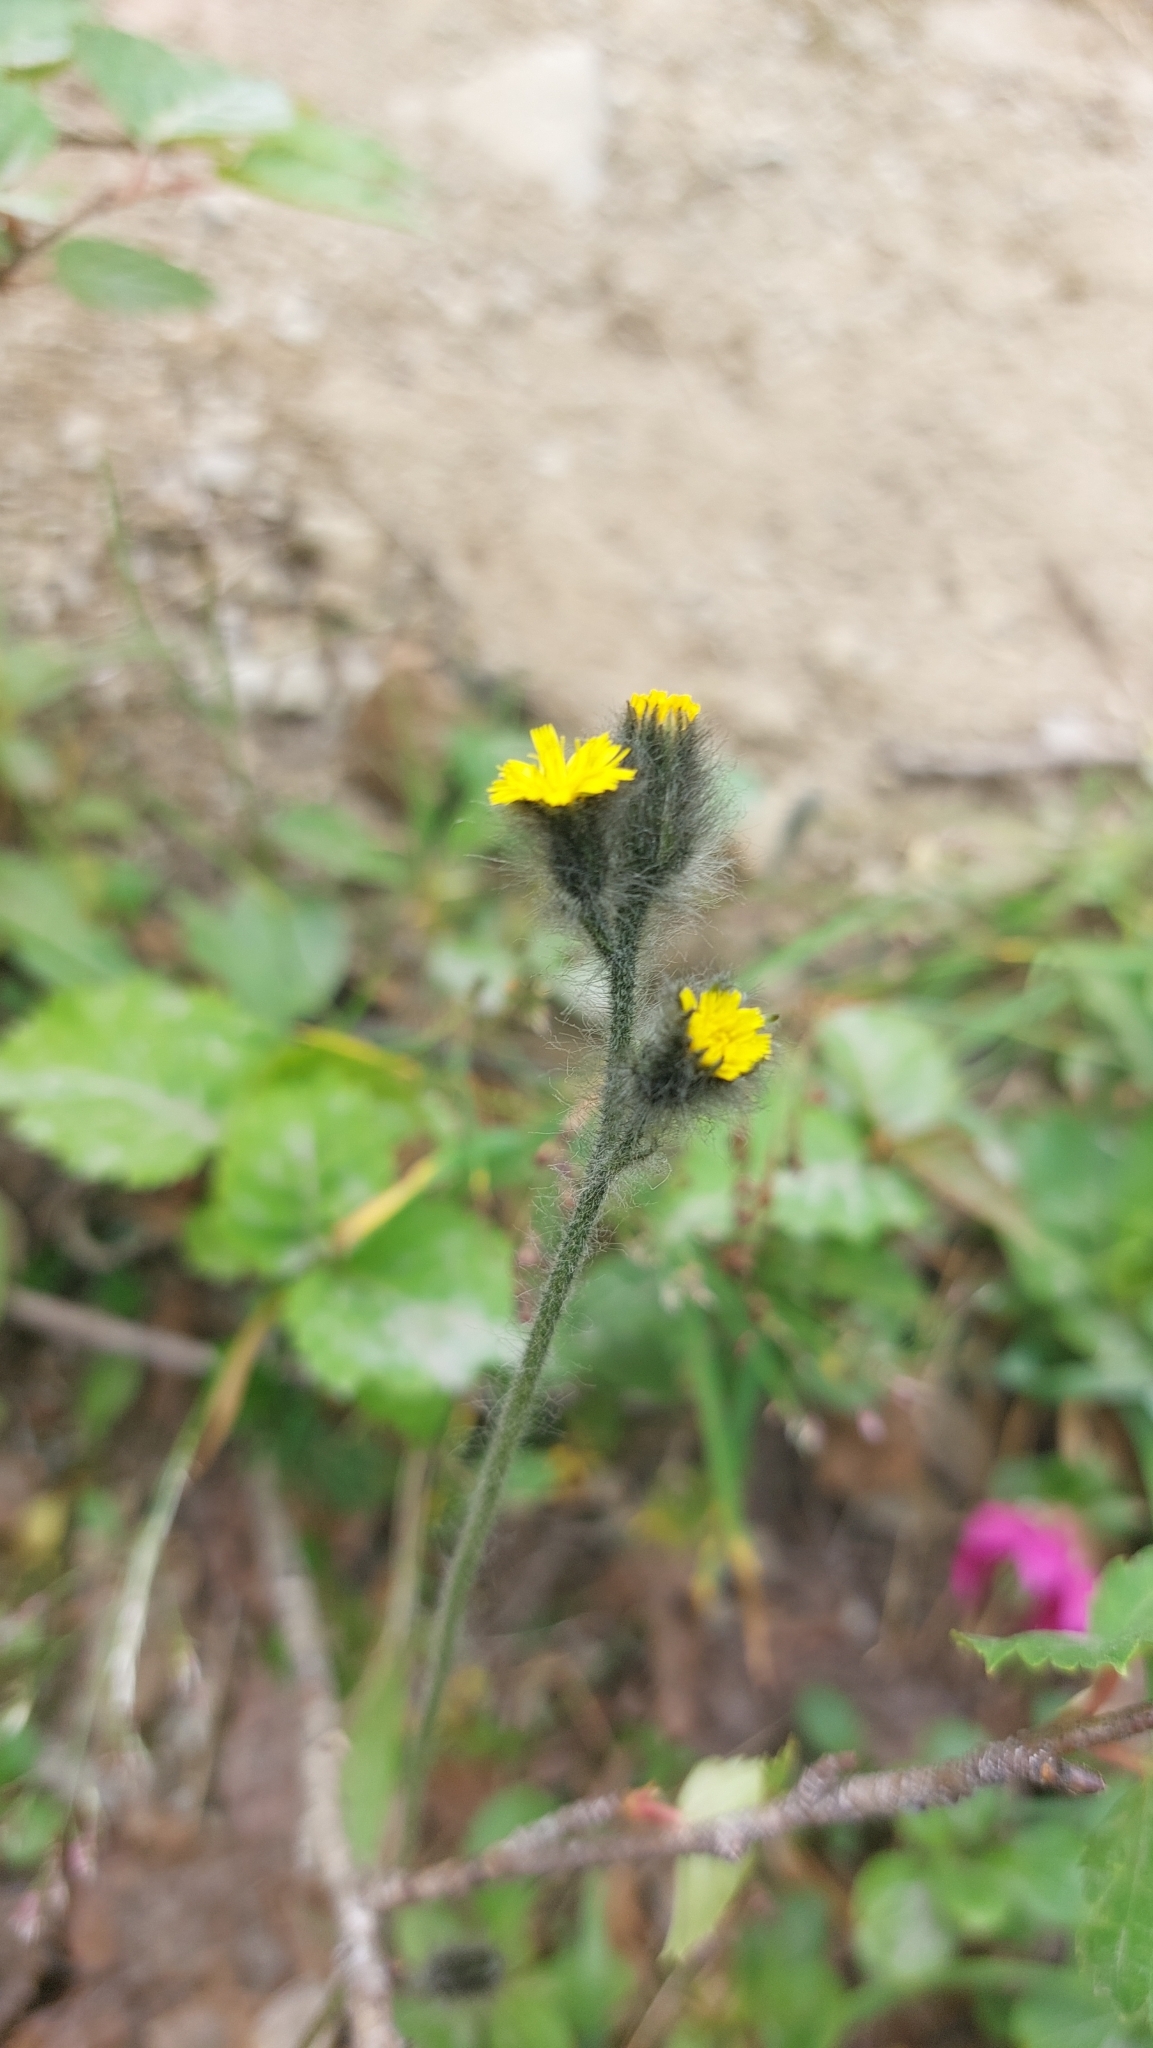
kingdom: Plantae
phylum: Tracheophyta
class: Magnoliopsida
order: Asterales
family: Asteraceae
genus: Hieracium
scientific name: Hieracium triste
